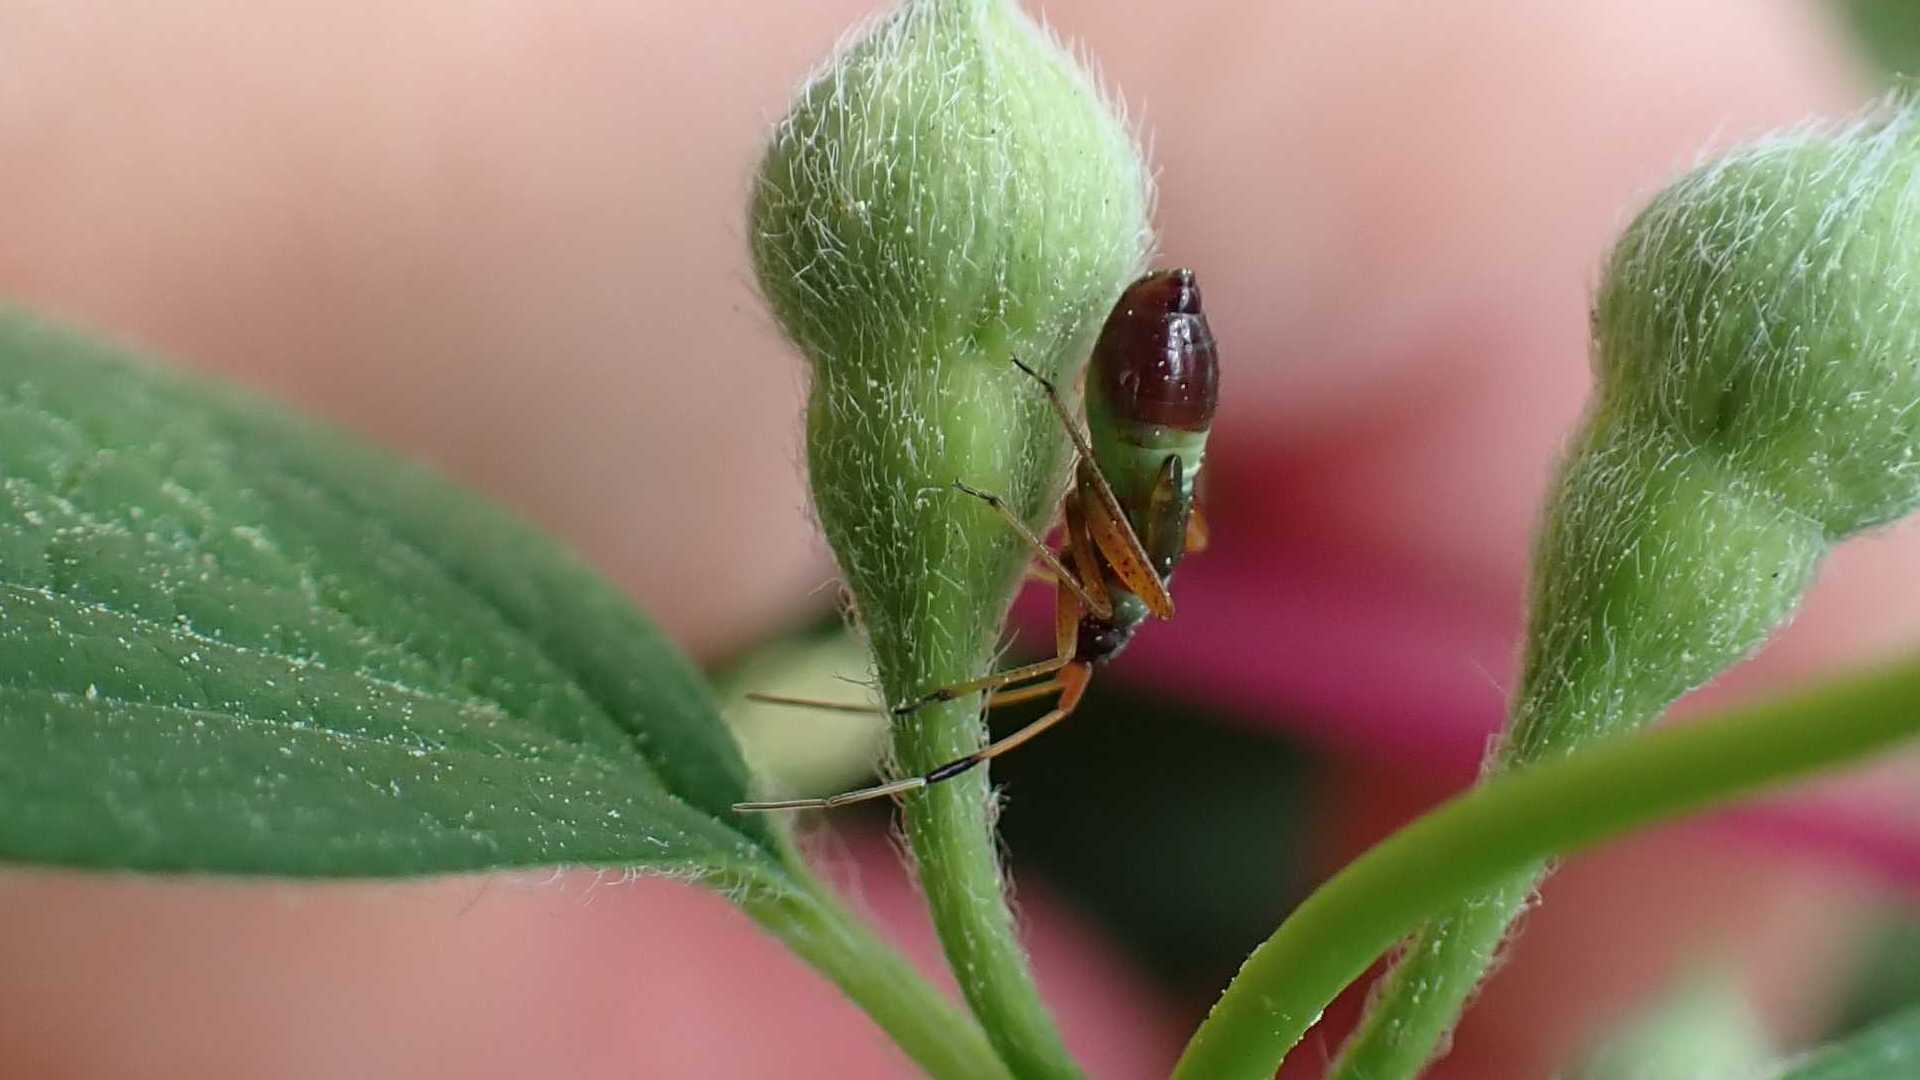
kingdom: Animalia
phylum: Arthropoda
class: Insecta
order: Hemiptera
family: Miridae
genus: Closterotomus
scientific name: Closterotomus biclavatus
